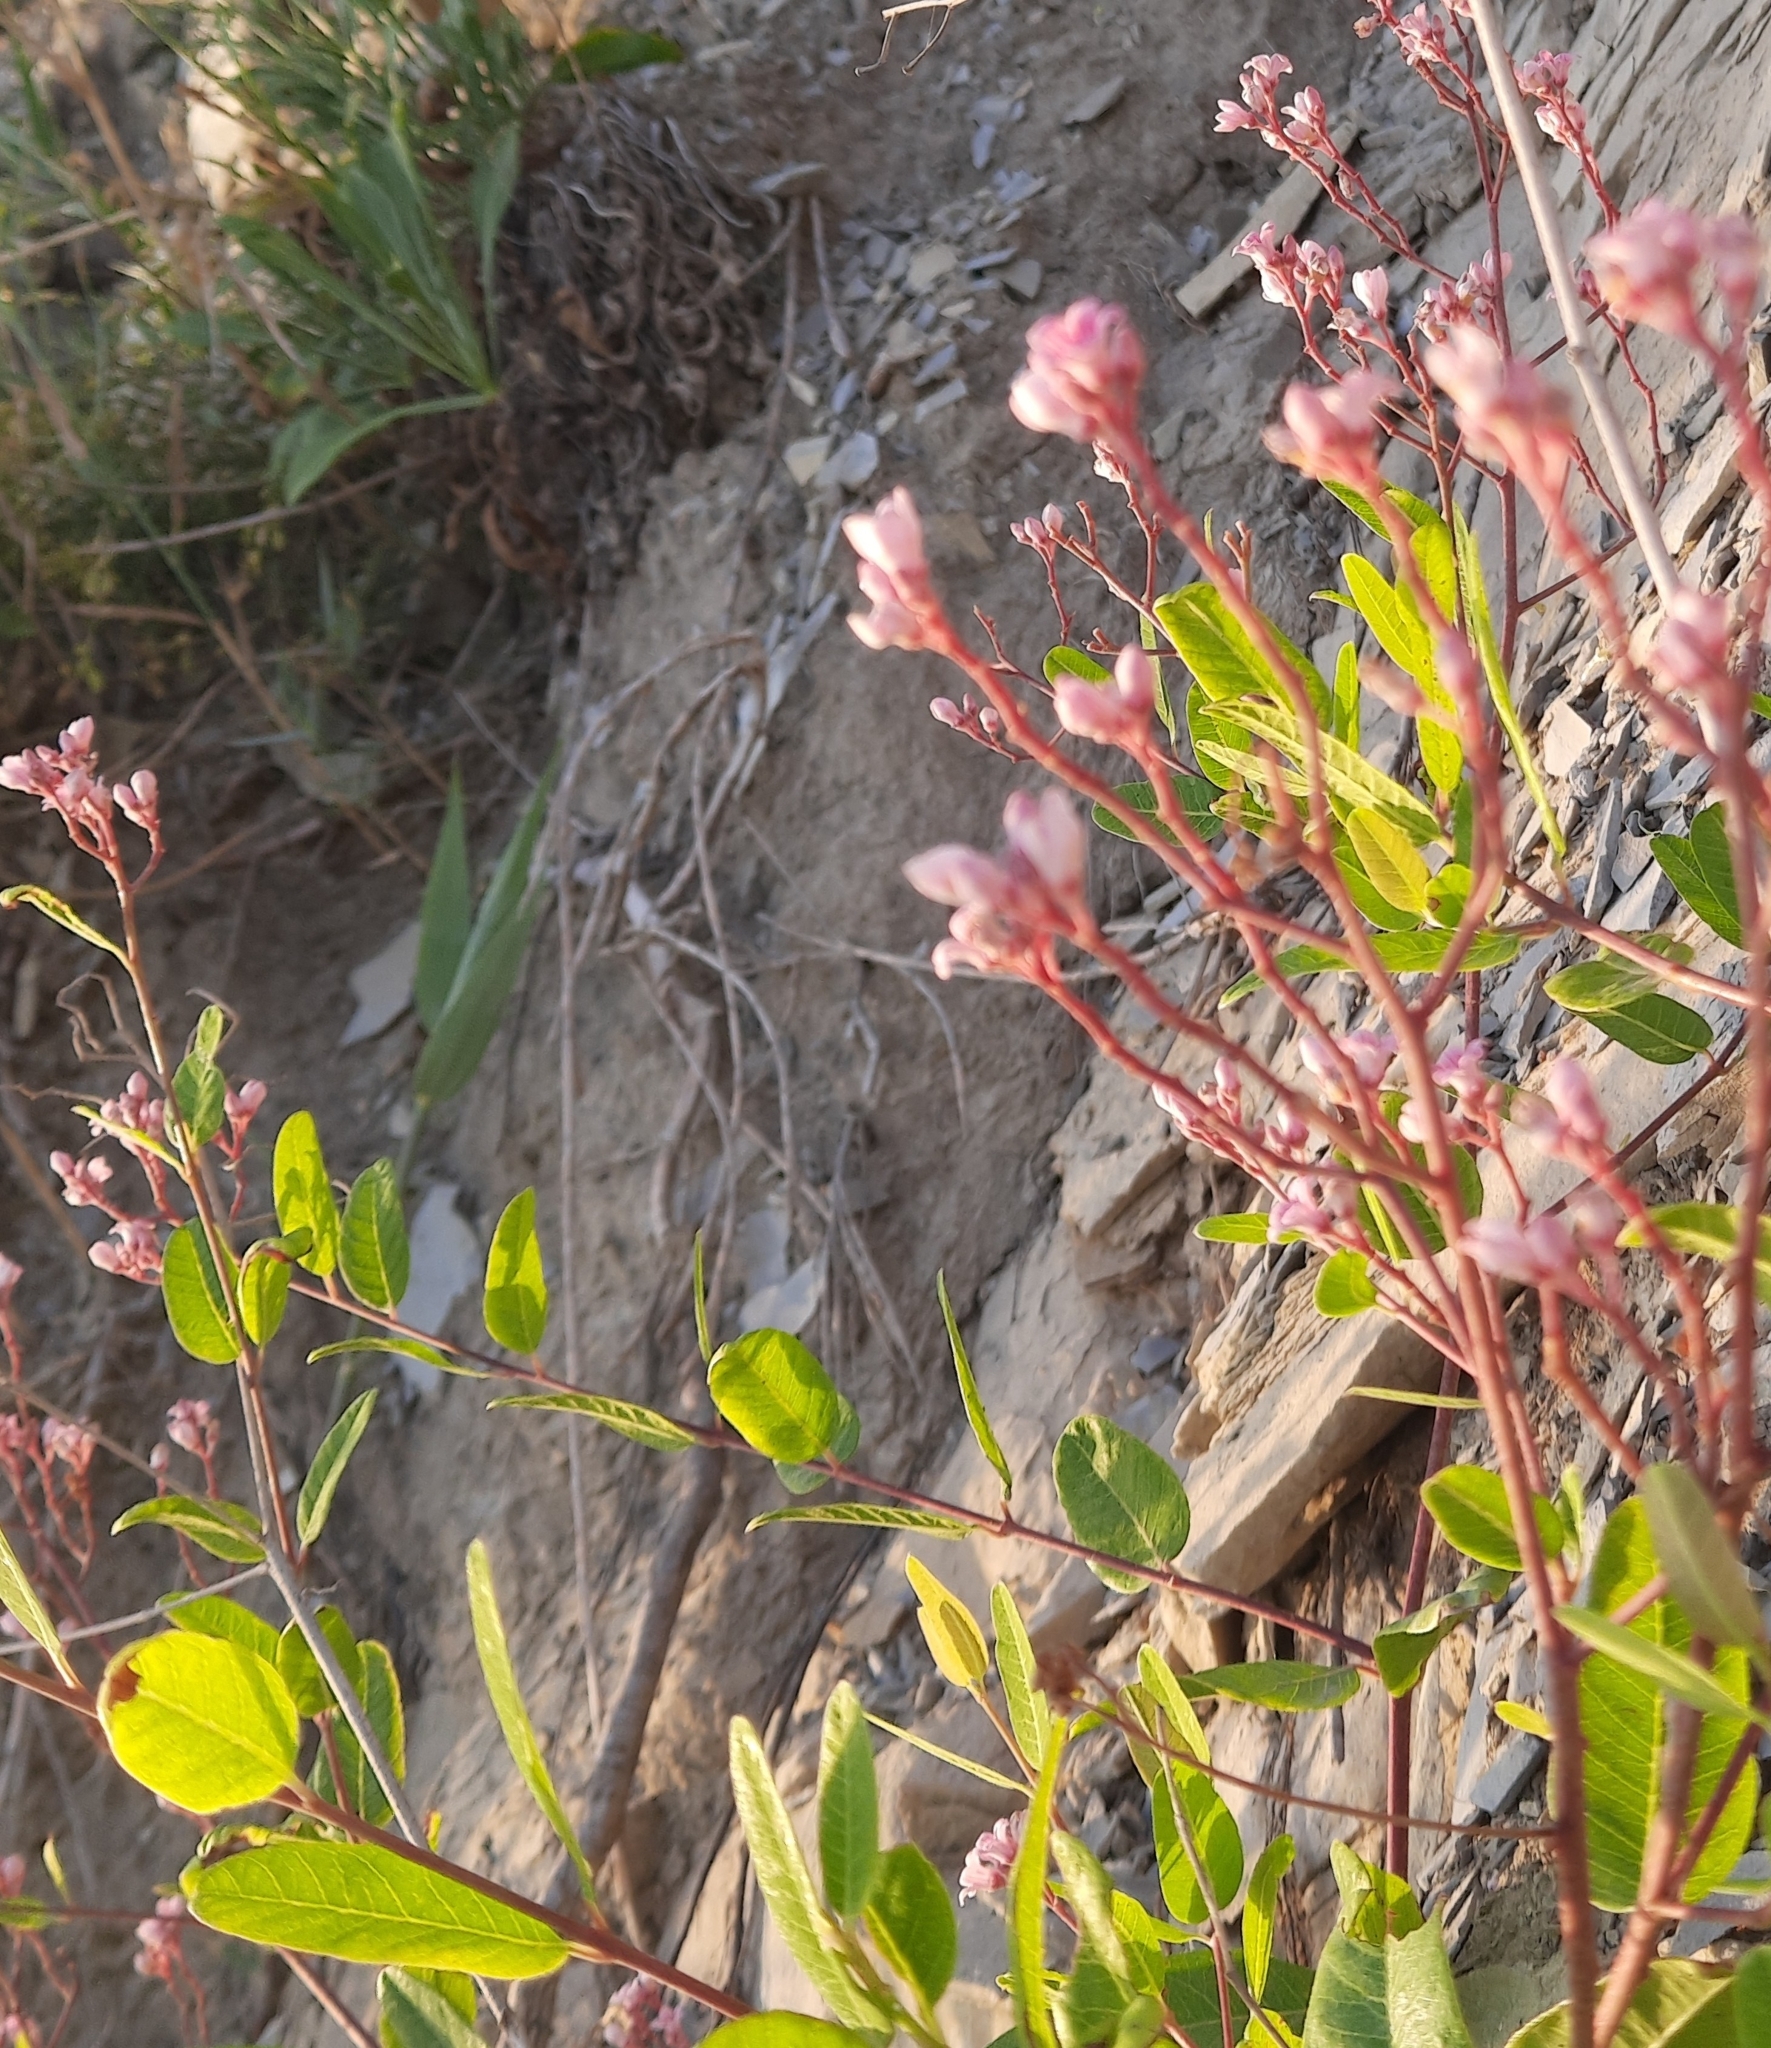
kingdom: Plantae
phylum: Tracheophyta
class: Magnoliopsida
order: Gentianales
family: Apocynaceae
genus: Poacynum
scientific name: Poacynum venetum
